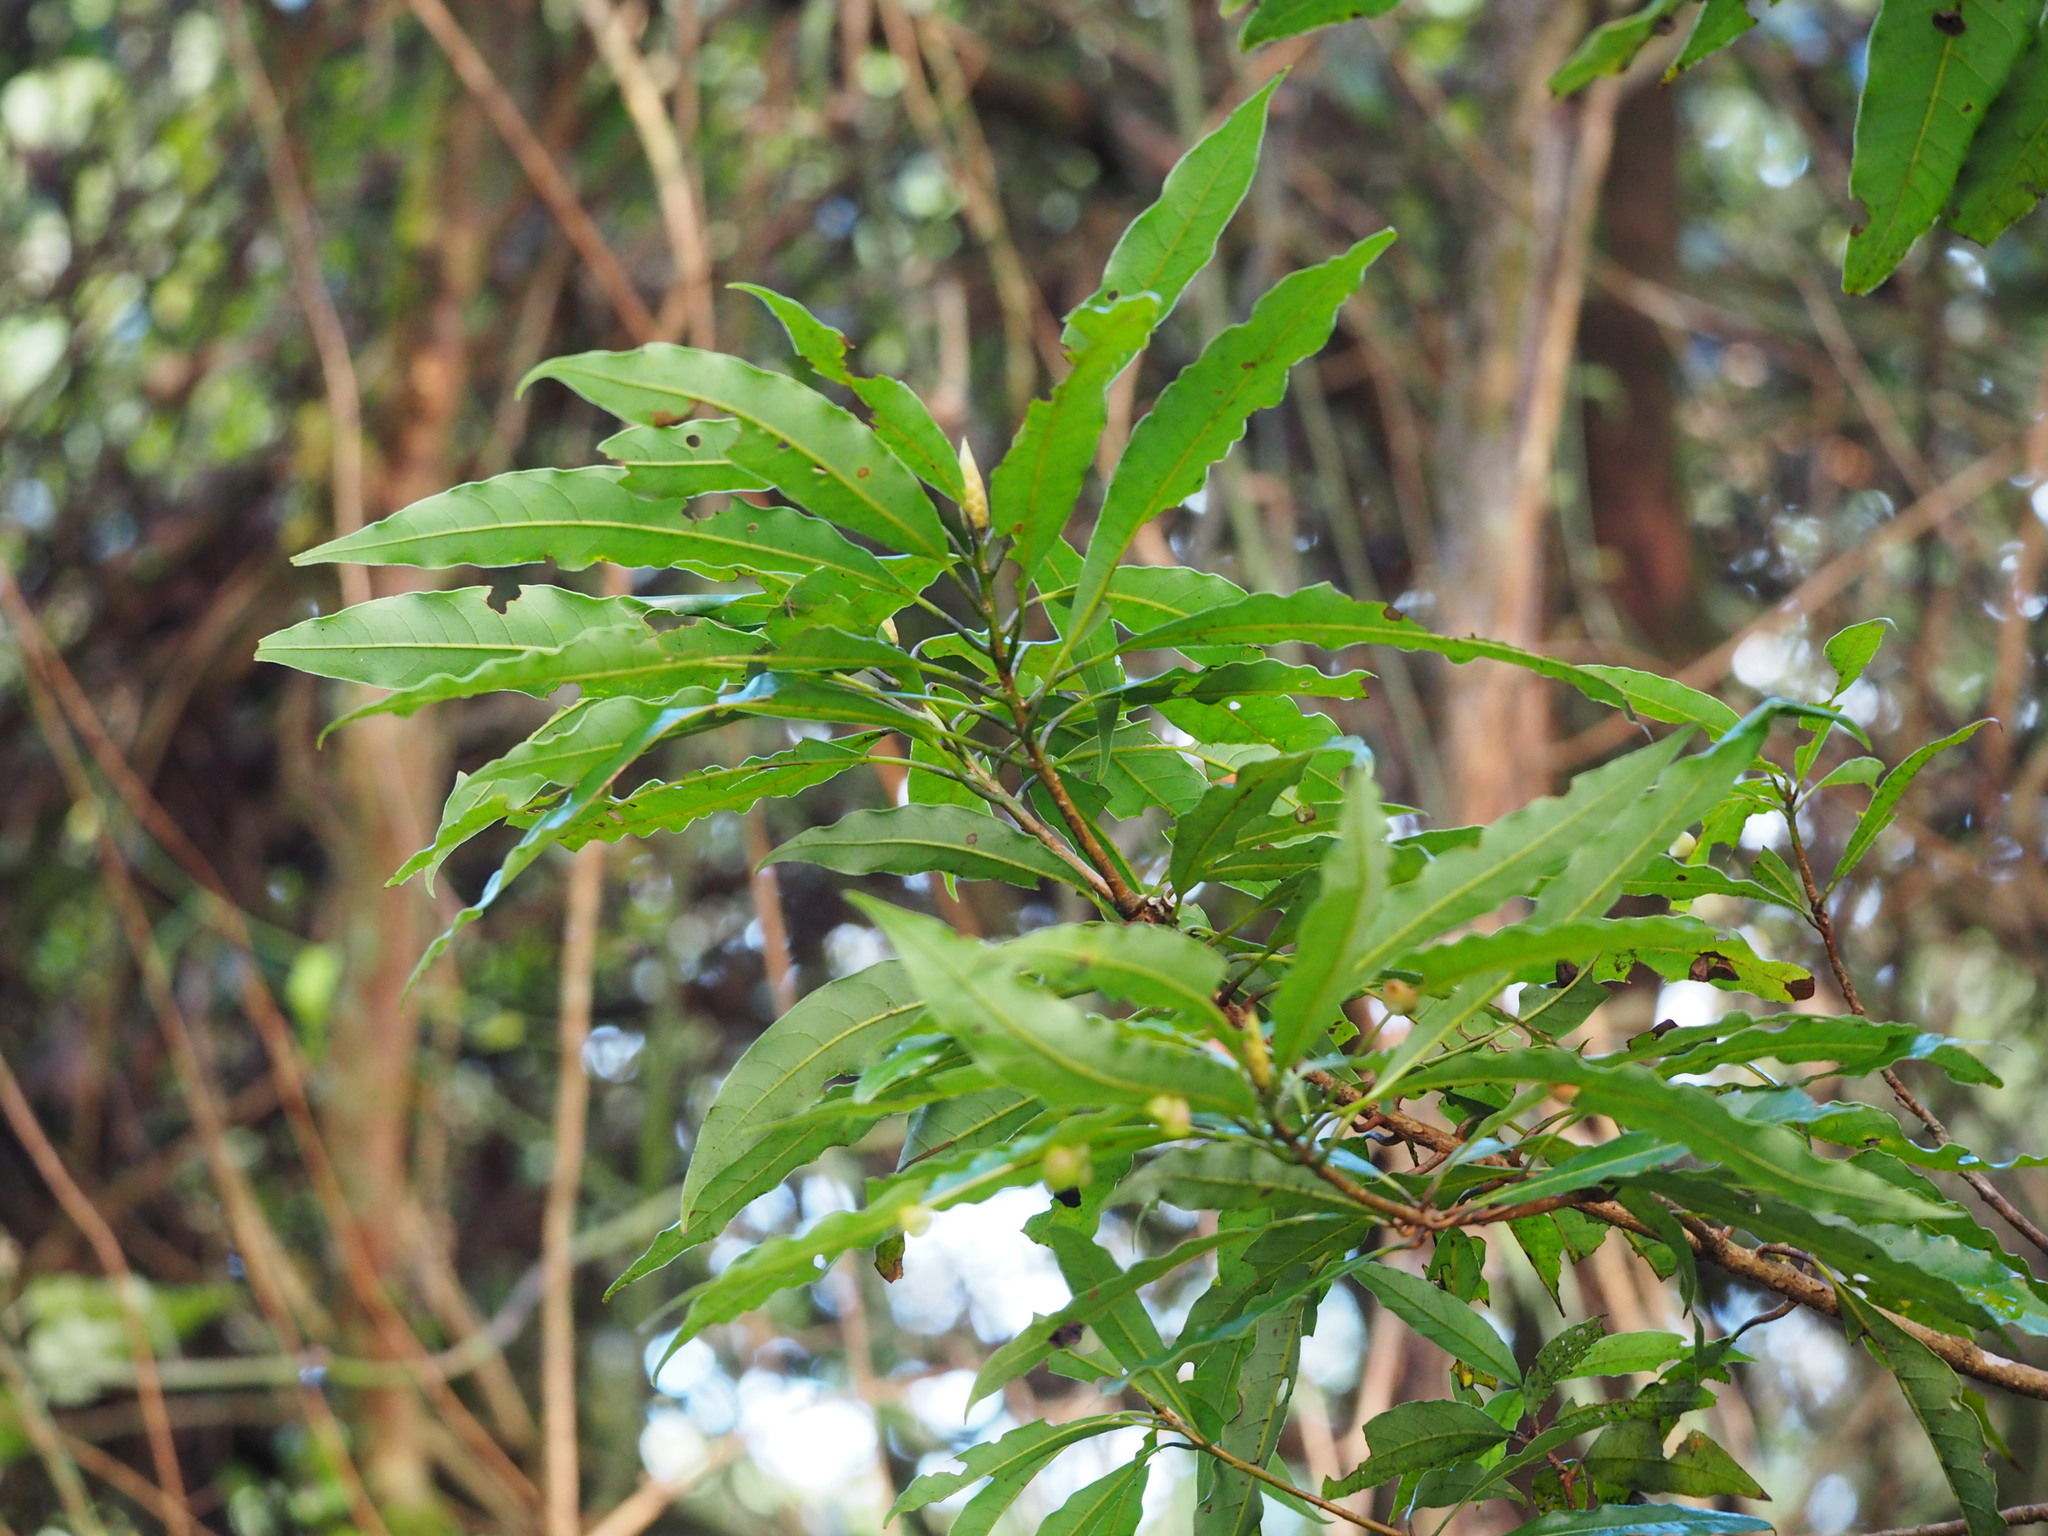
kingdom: Plantae
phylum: Tracheophyta
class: Magnoliopsida
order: Laurales
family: Lauraceae
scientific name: Lauraceae
